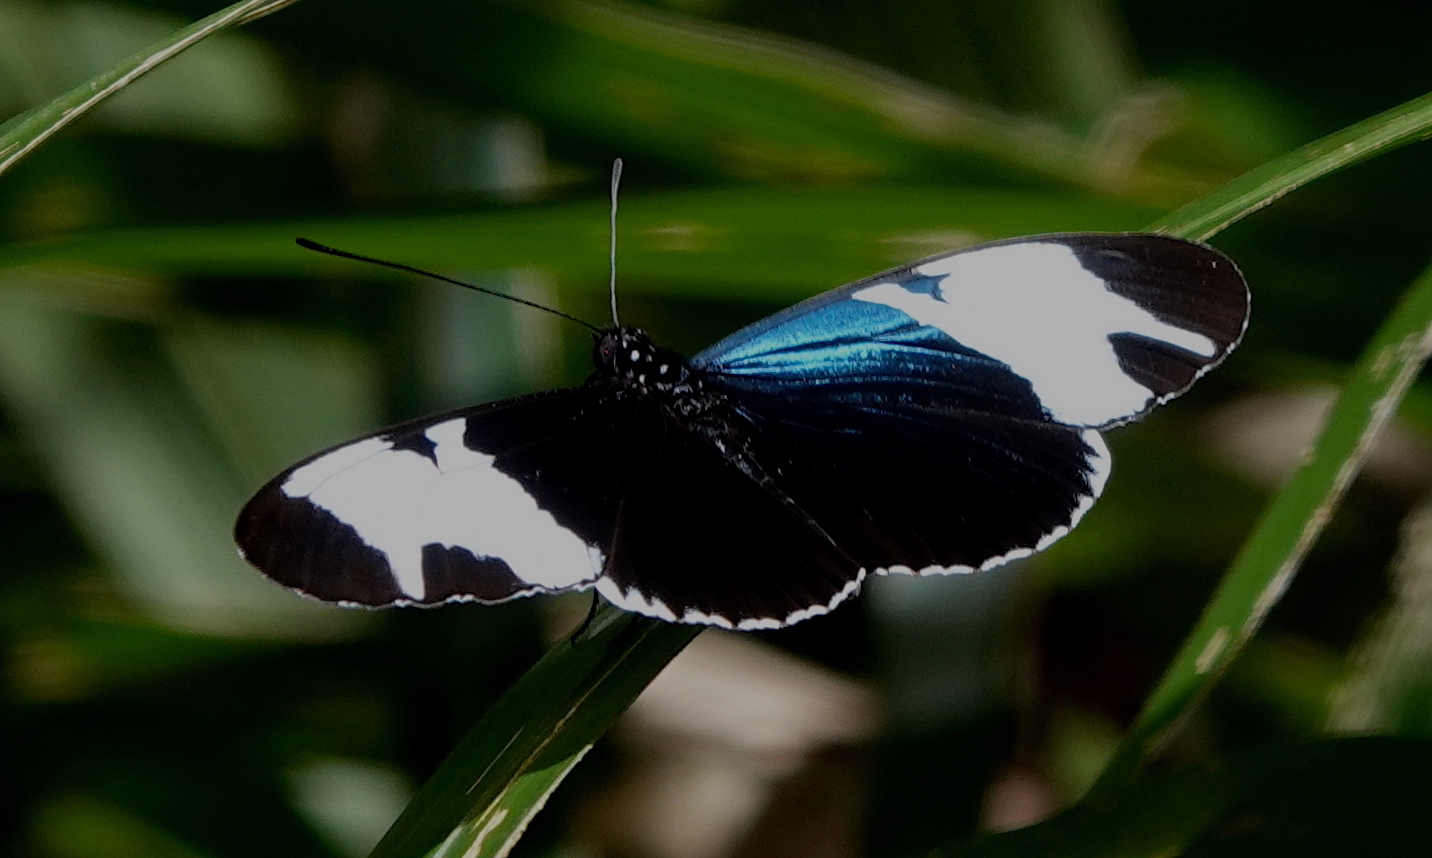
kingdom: Animalia
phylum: Arthropoda
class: Insecta
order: Lepidoptera
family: Nymphalidae
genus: Heliconius
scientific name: Heliconius sapho
